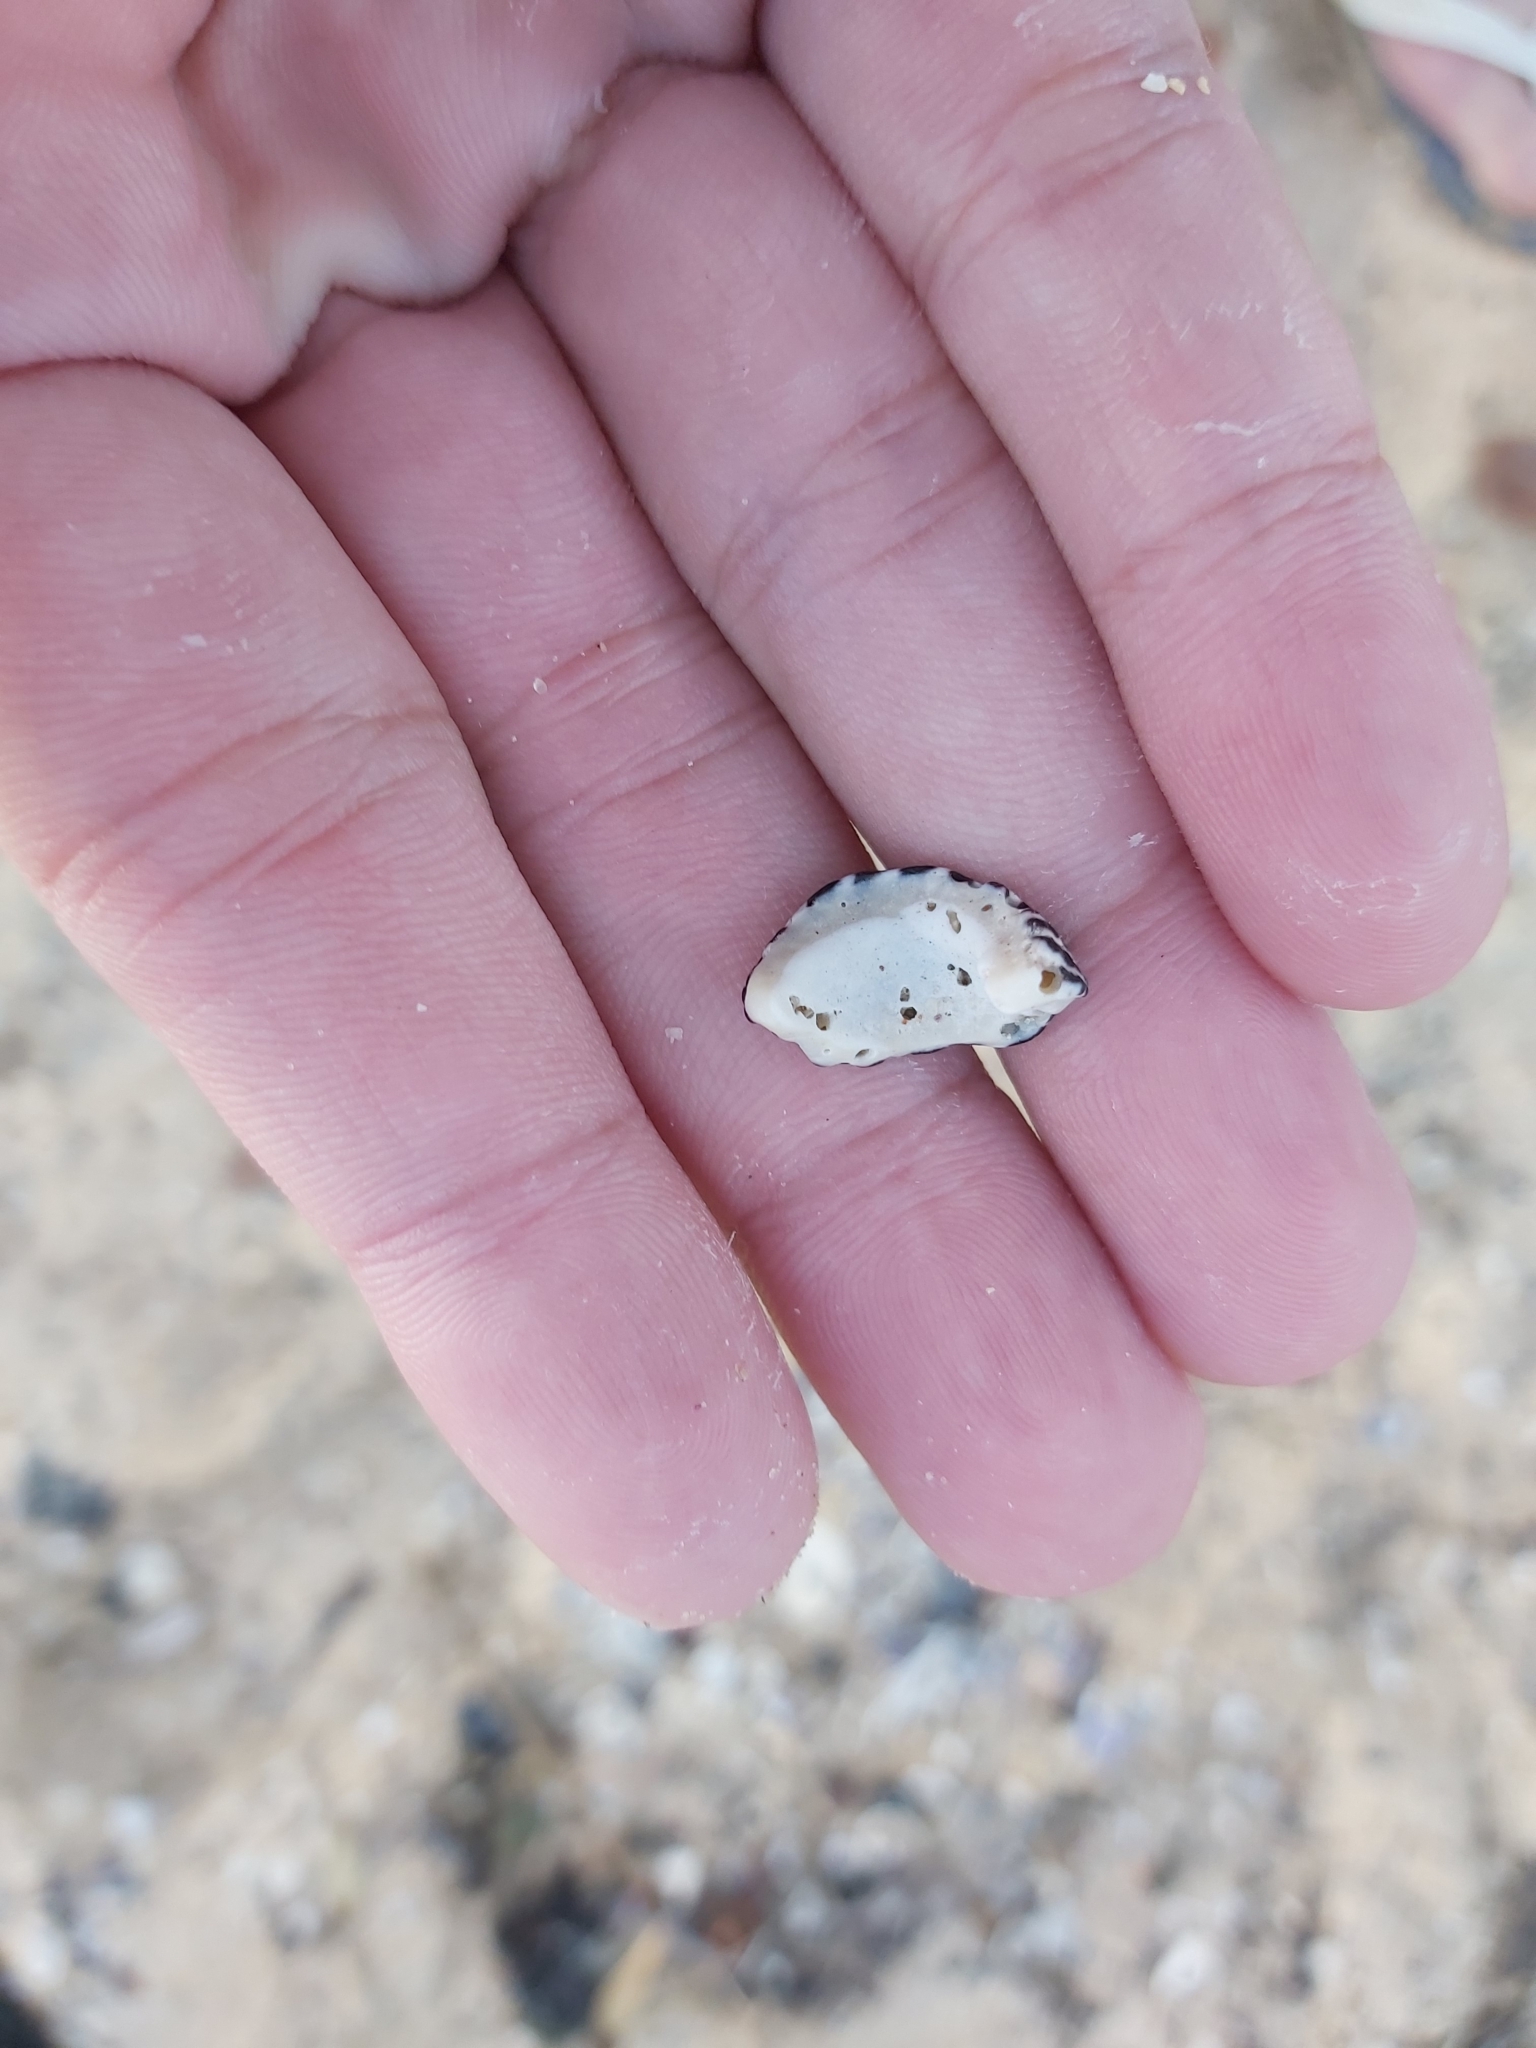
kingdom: Animalia
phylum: Mollusca
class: Gastropoda
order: Trochida
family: Trochidae
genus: Austrocochlea
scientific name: Austrocochlea porcata
